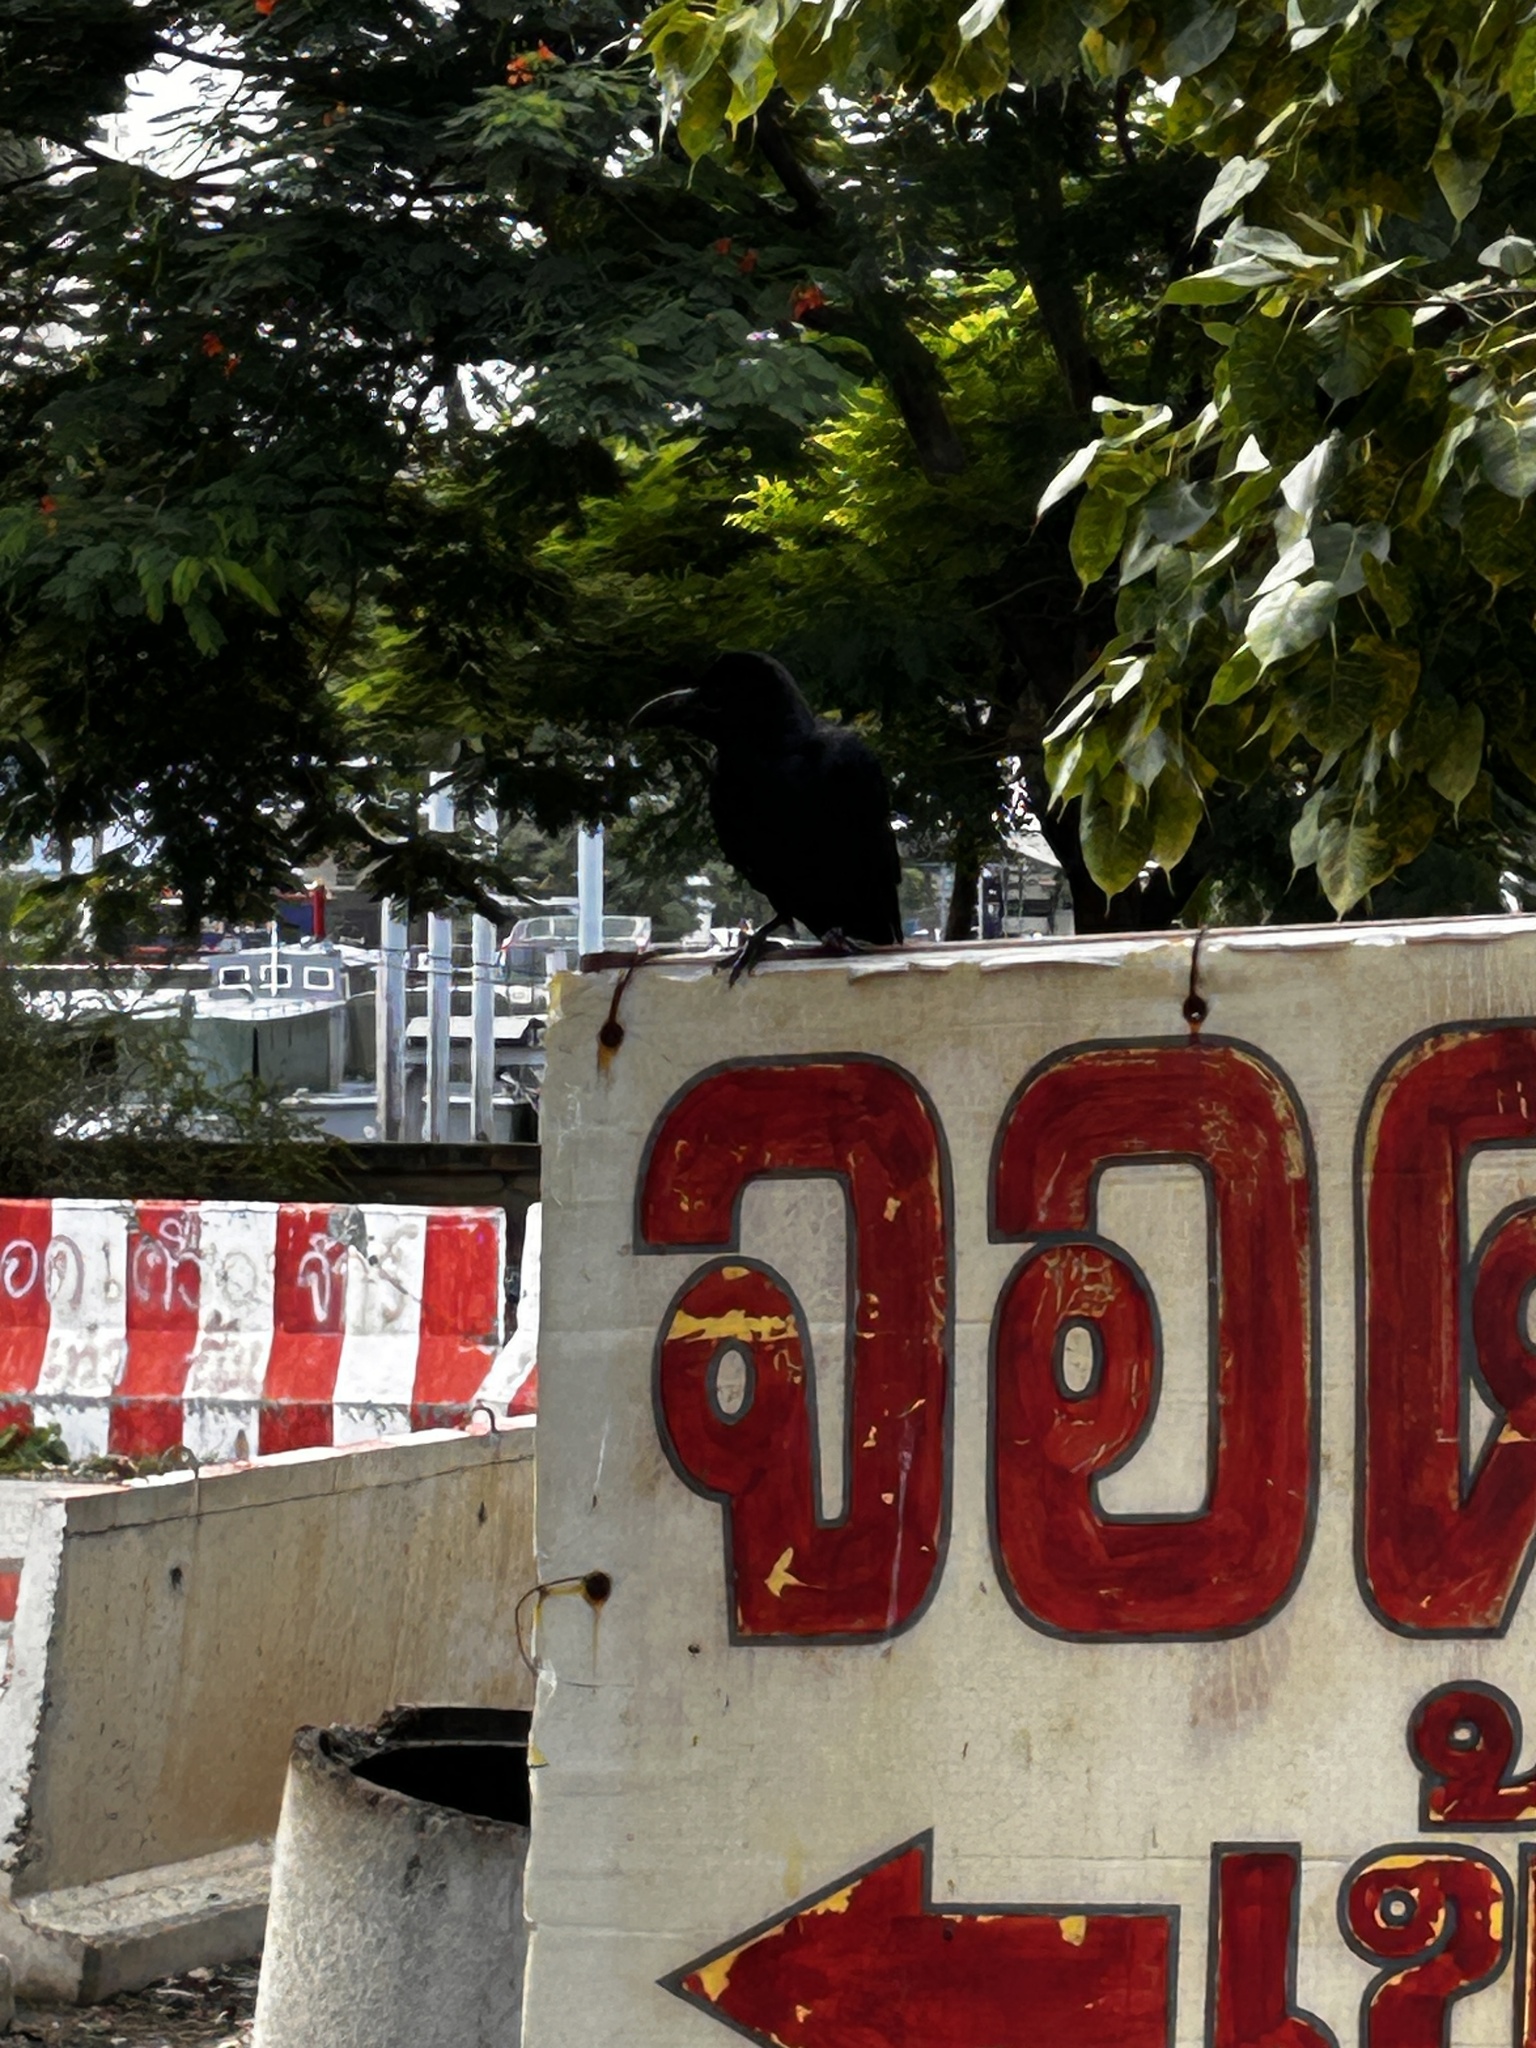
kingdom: Animalia
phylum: Chordata
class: Aves
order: Passeriformes
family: Corvidae
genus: Corvus
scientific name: Corvus macrorhynchos
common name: Large-billed crow
